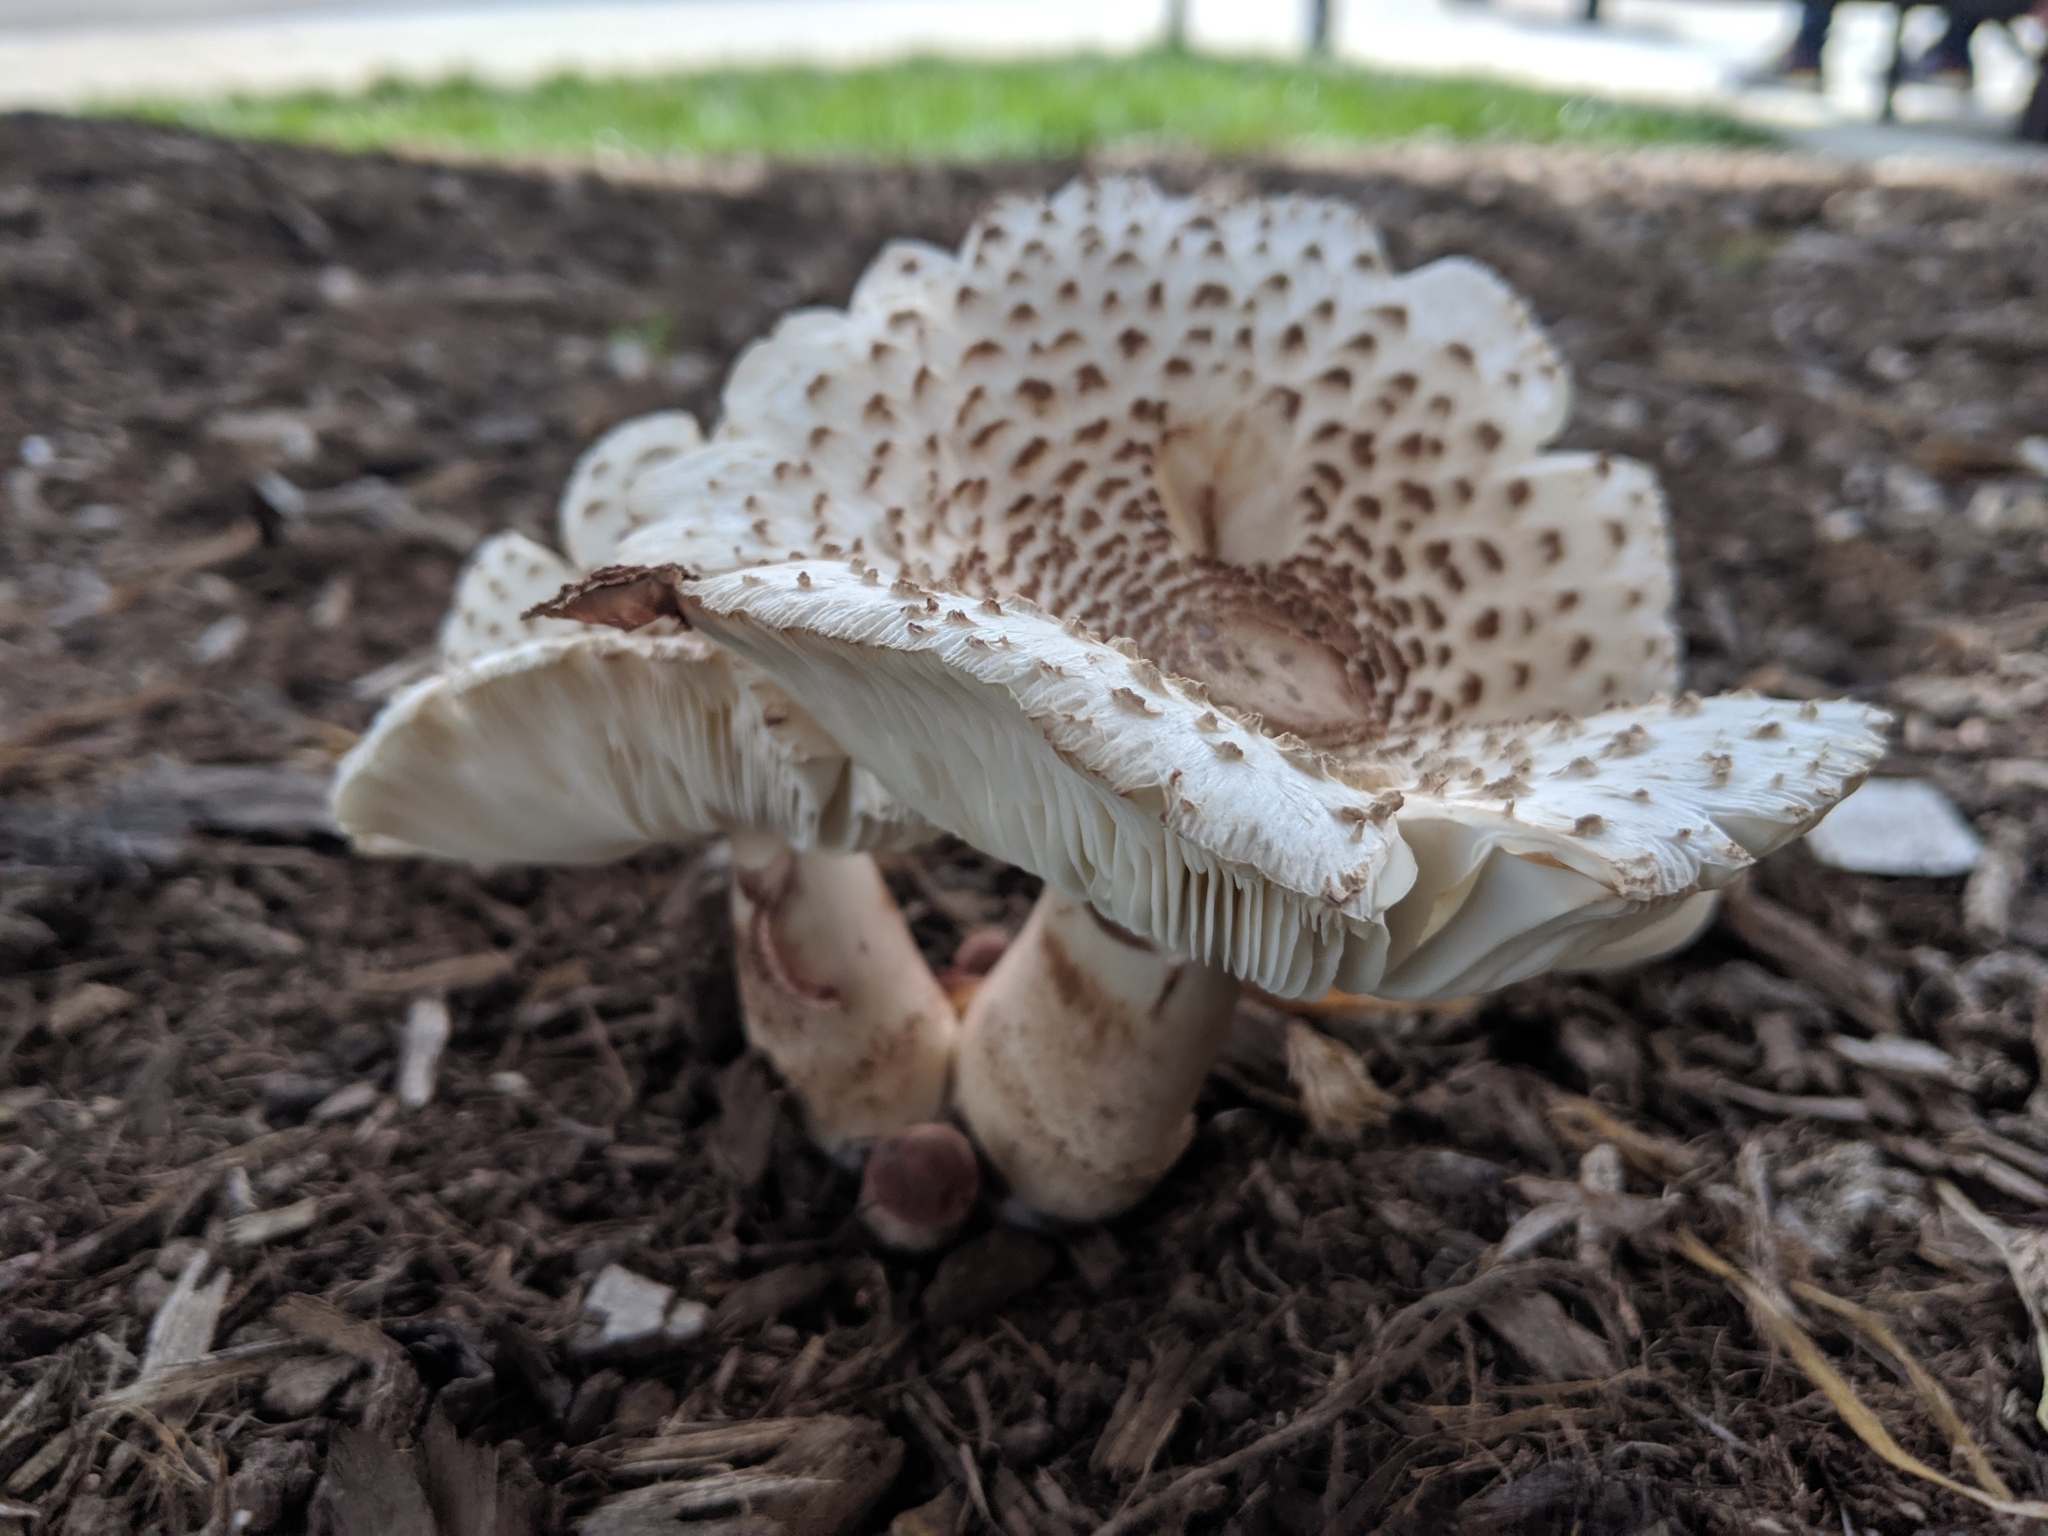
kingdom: Fungi
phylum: Basidiomycota
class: Agaricomycetes
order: Agaricales
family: Agaricaceae
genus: Leucoagaricus
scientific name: Leucoagaricus americanus
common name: Reddening lepiota
